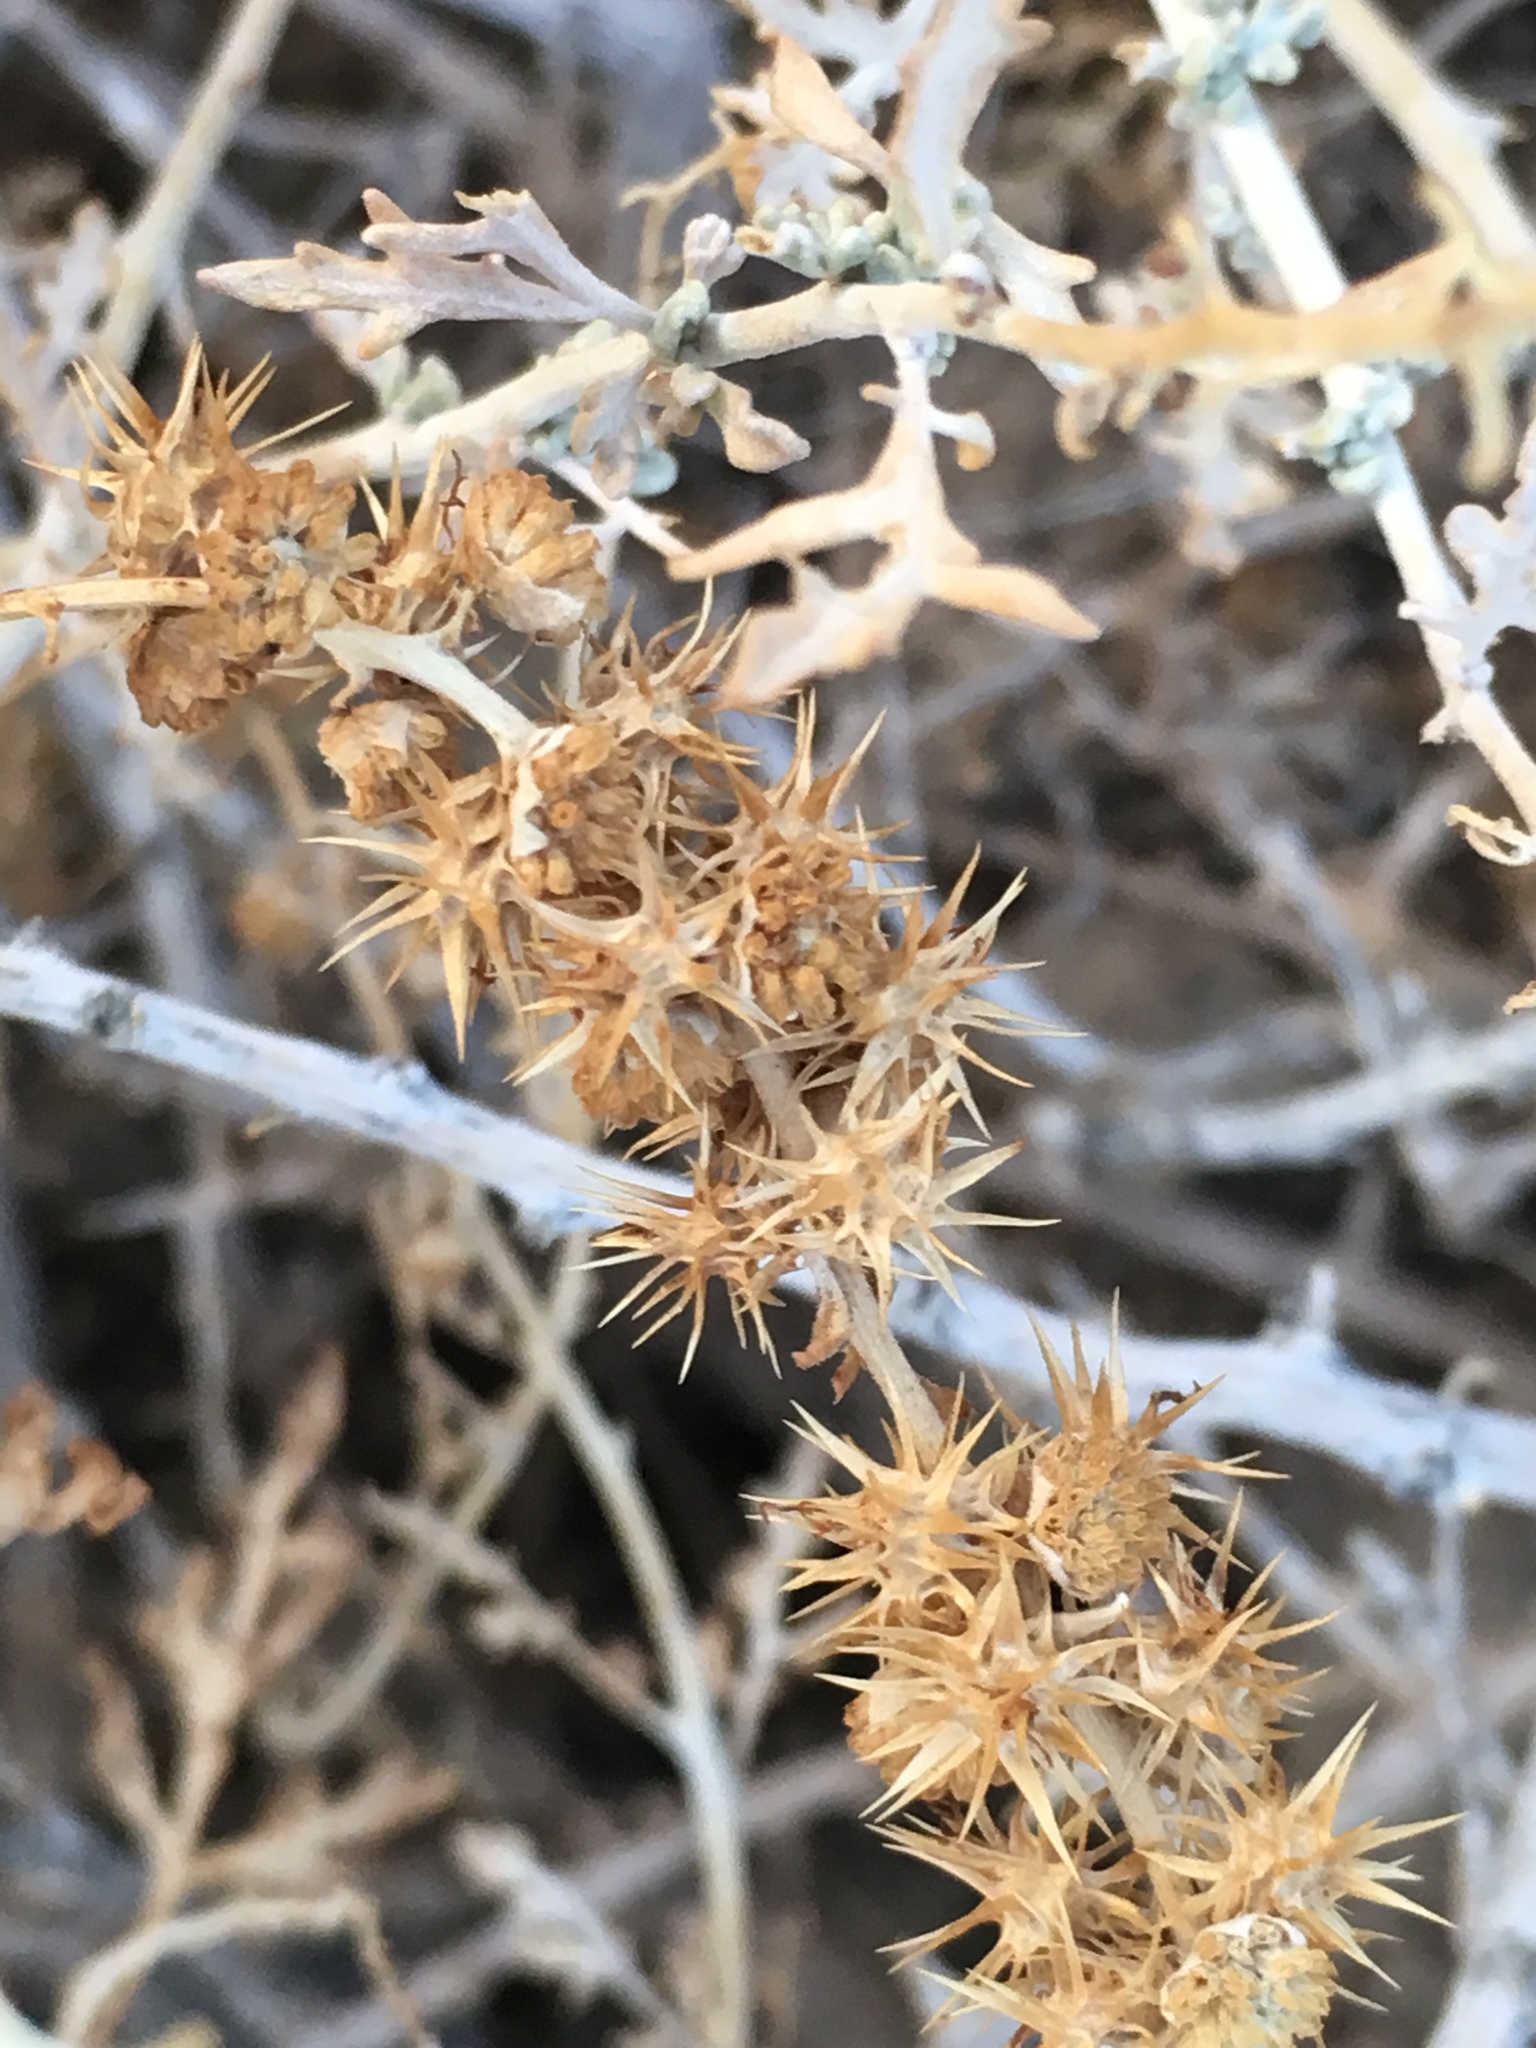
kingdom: Plantae
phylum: Tracheophyta
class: Magnoliopsida
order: Asterales
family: Asteraceae
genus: Ambrosia
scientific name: Ambrosia dumosa
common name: Bur-sage
